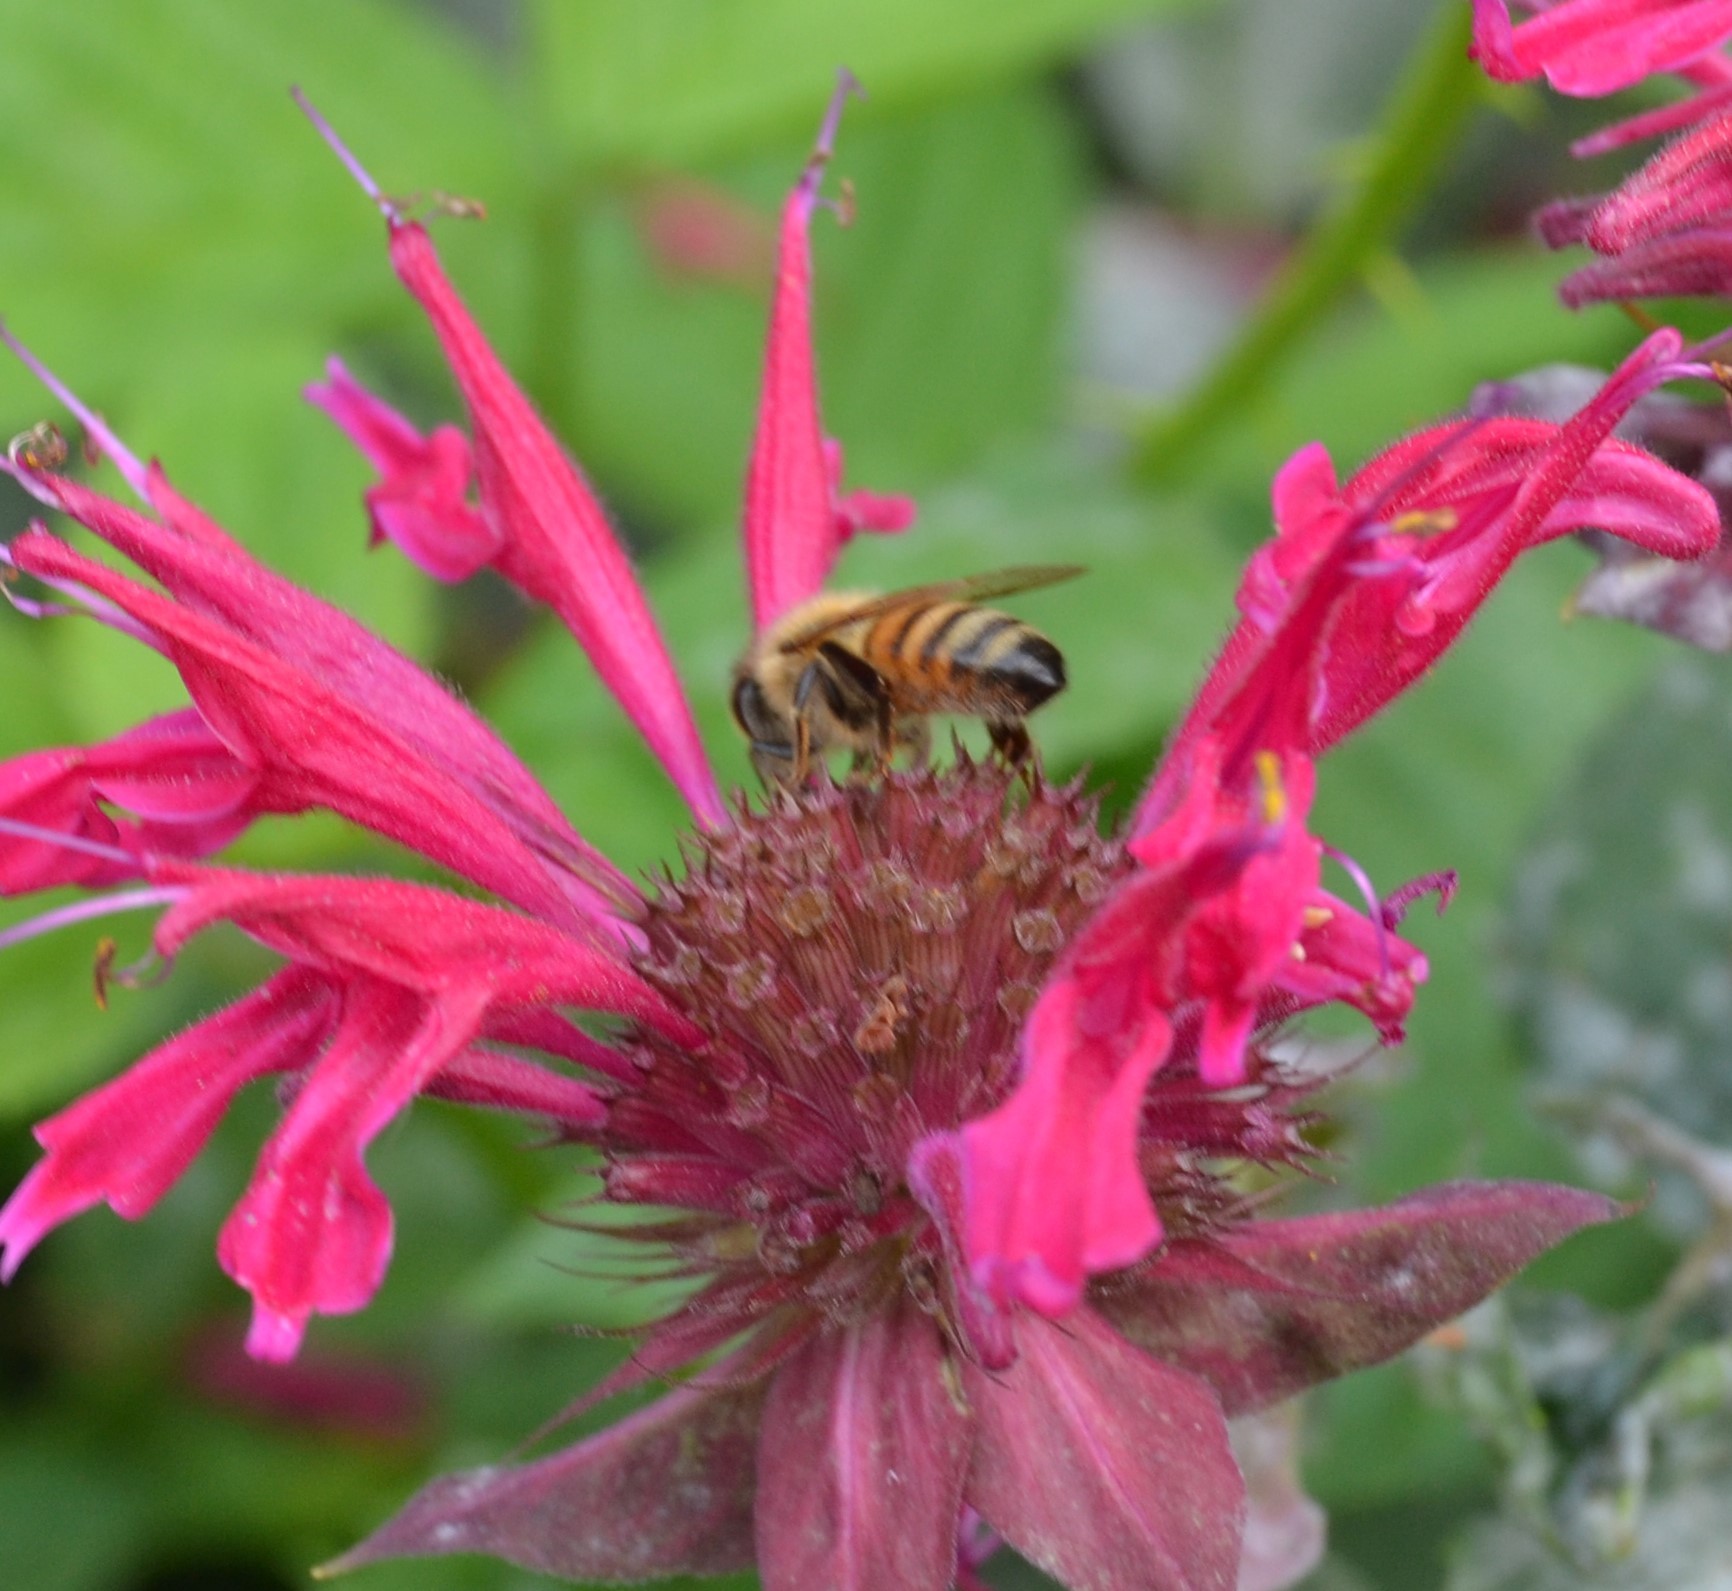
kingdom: Animalia
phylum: Arthropoda
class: Insecta
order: Hymenoptera
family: Apidae
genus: Apis
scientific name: Apis mellifera
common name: Honey bee
